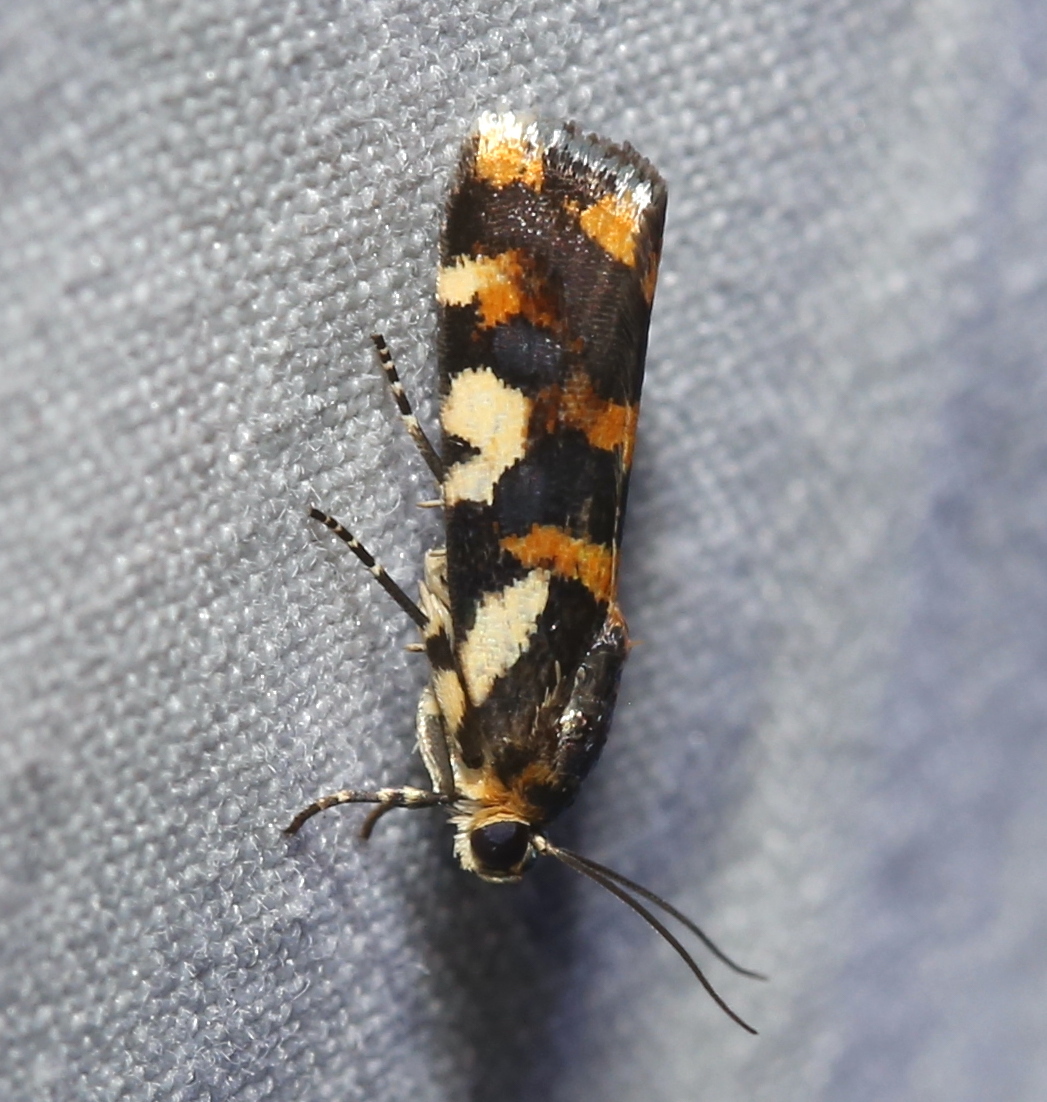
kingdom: Animalia
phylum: Arthropoda
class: Insecta
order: Lepidoptera
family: Noctuidae
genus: Acontia
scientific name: Acontia dama
